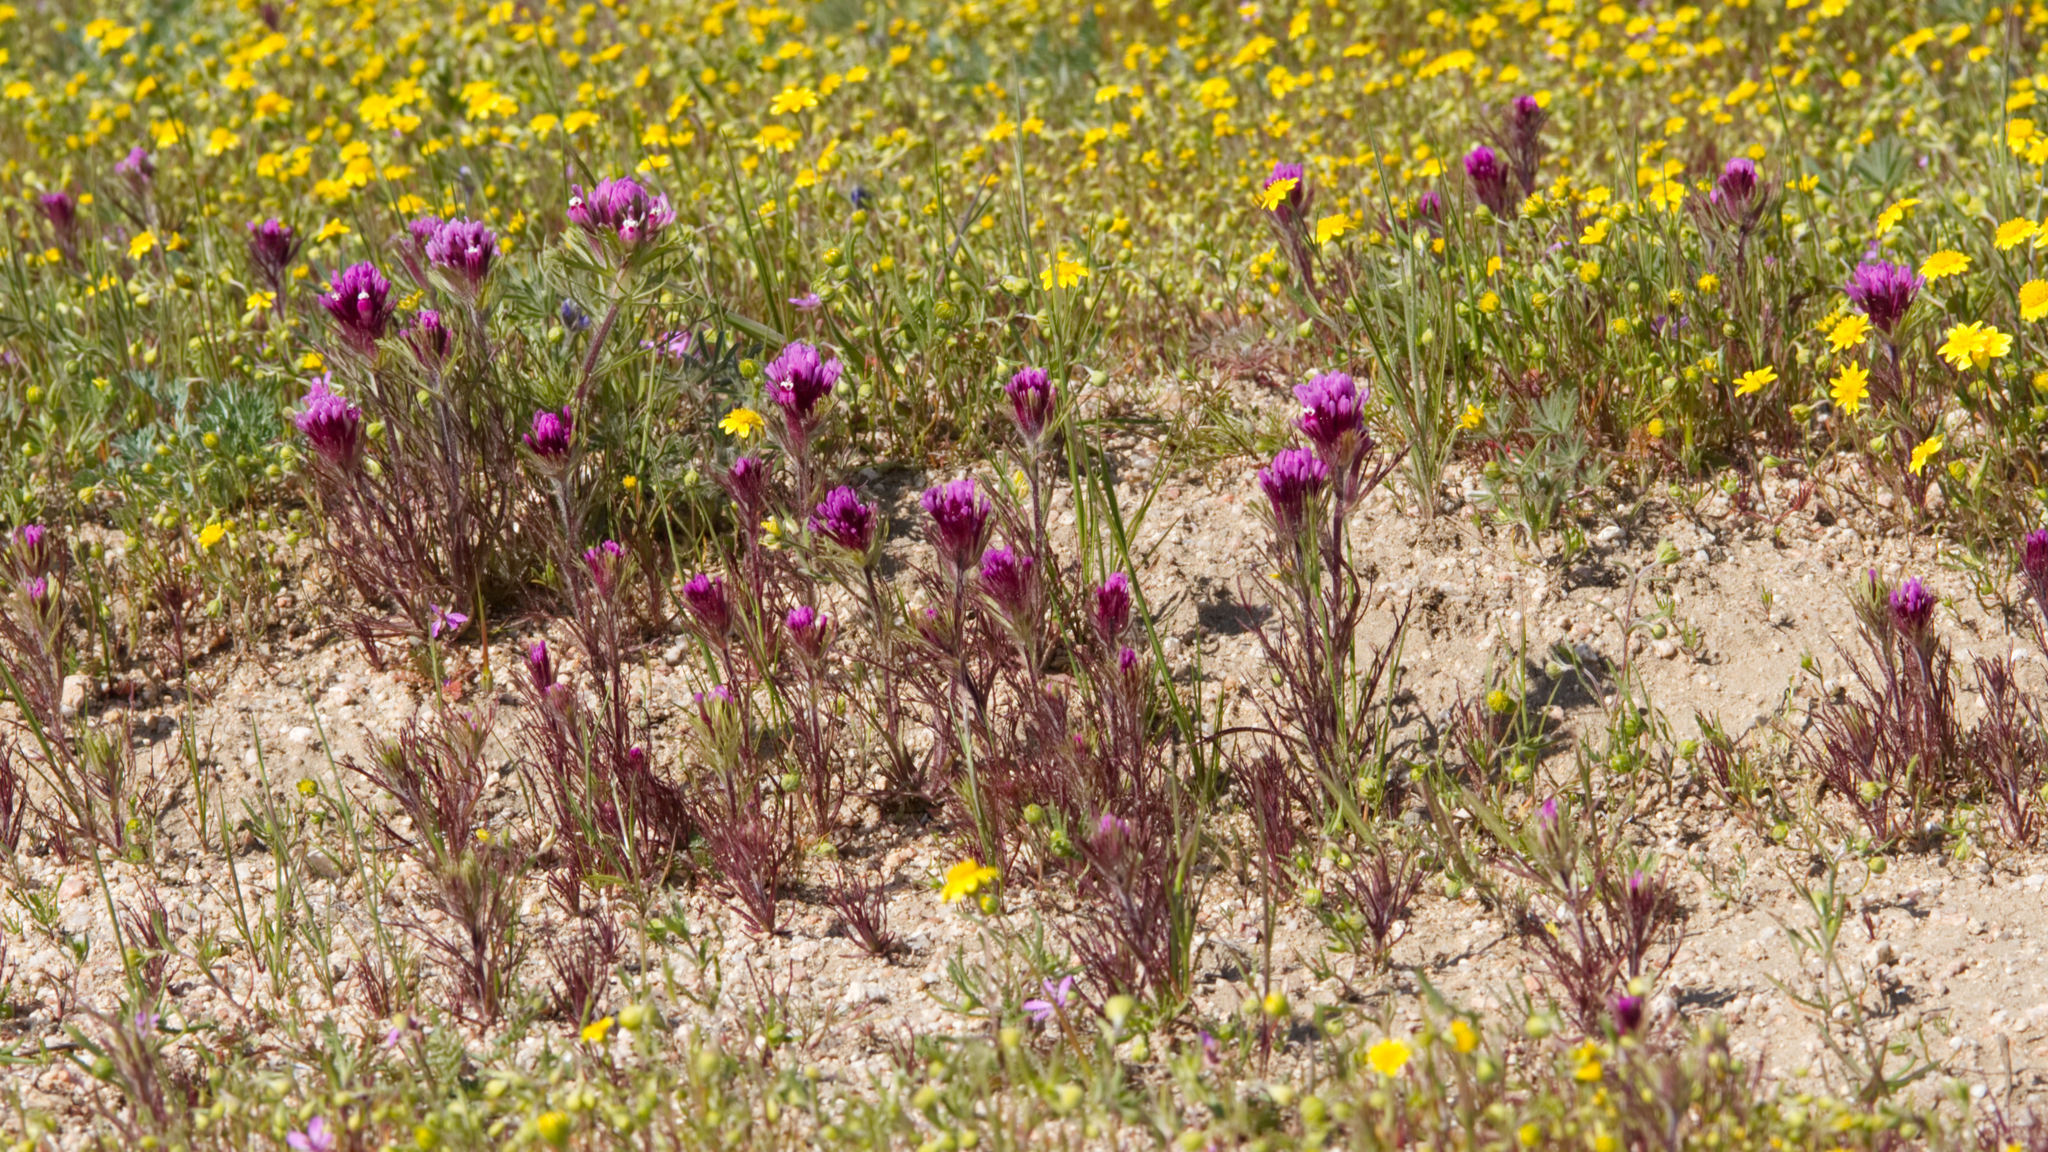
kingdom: Plantae
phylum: Tracheophyta
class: Magnoliopsida
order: Lamiales
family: Orobanchaceae
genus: Castilleja
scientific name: Castilleja exserta
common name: Purple owl-clover
